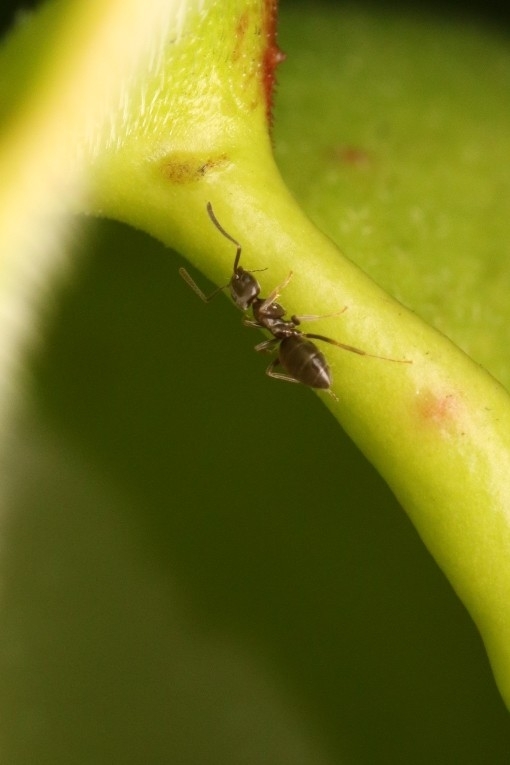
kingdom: Animalia
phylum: Arthropoda
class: Insecta
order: Hymenoptera
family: Formicidae
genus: Tapinoma
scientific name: Tapinoma sessile
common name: Odorous house ant
